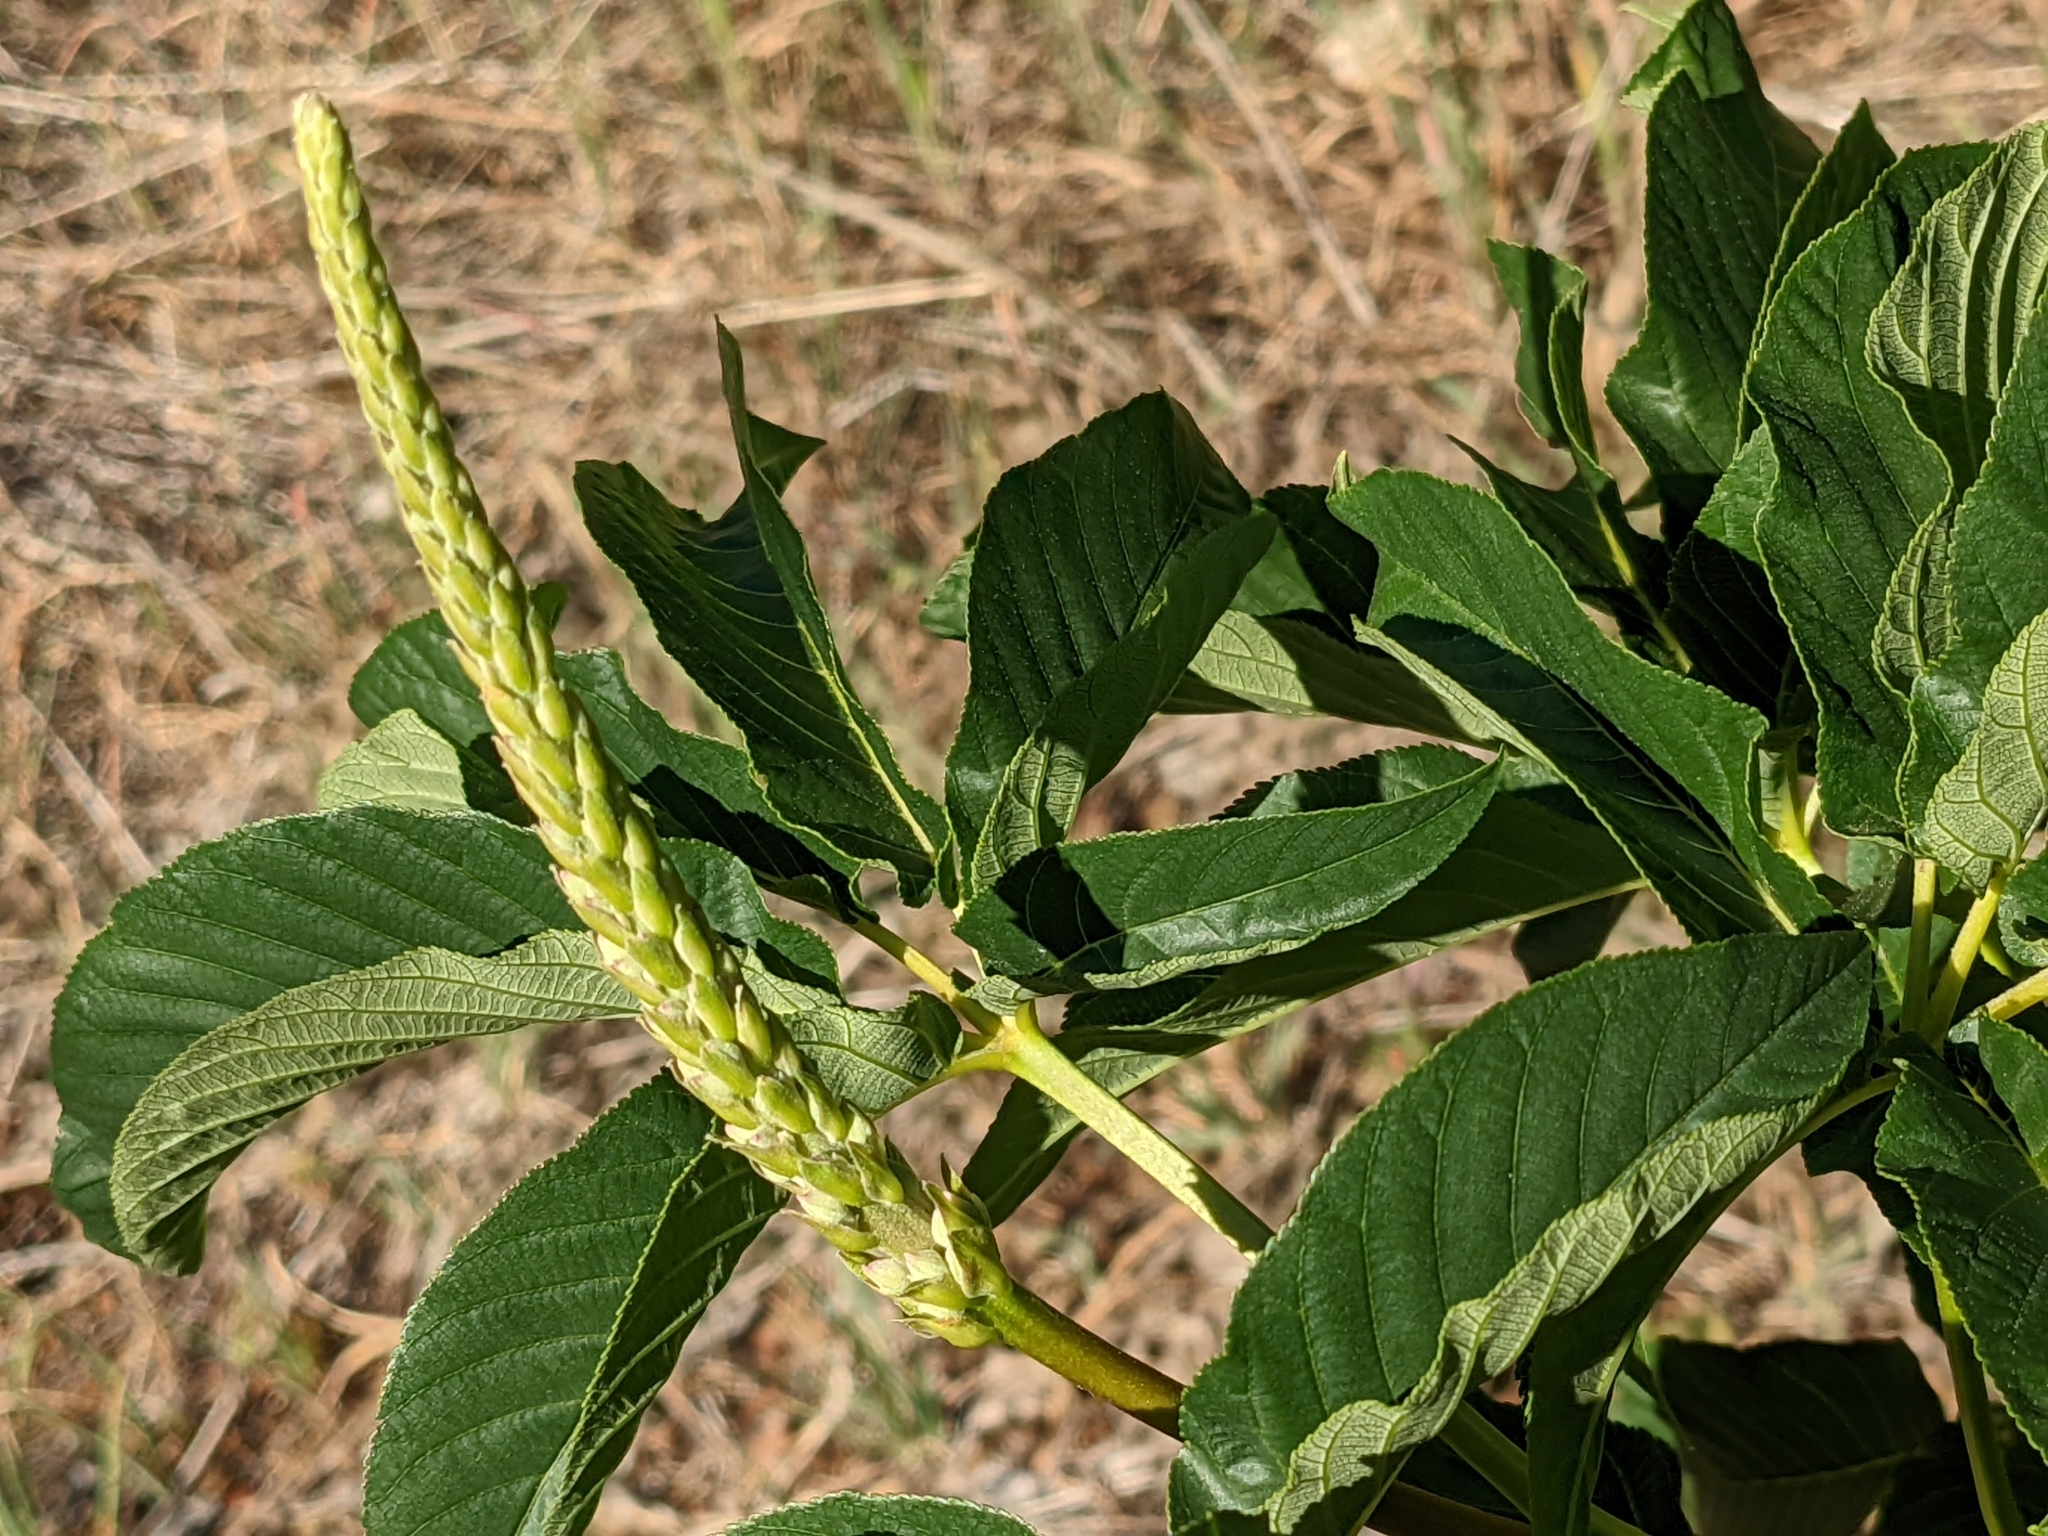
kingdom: Plantae
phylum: Tracheophyta
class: Magnoliopsida
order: Sapindales
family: Sapindaceae
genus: Aesculus
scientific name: Aesculus californica
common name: California buckeye
